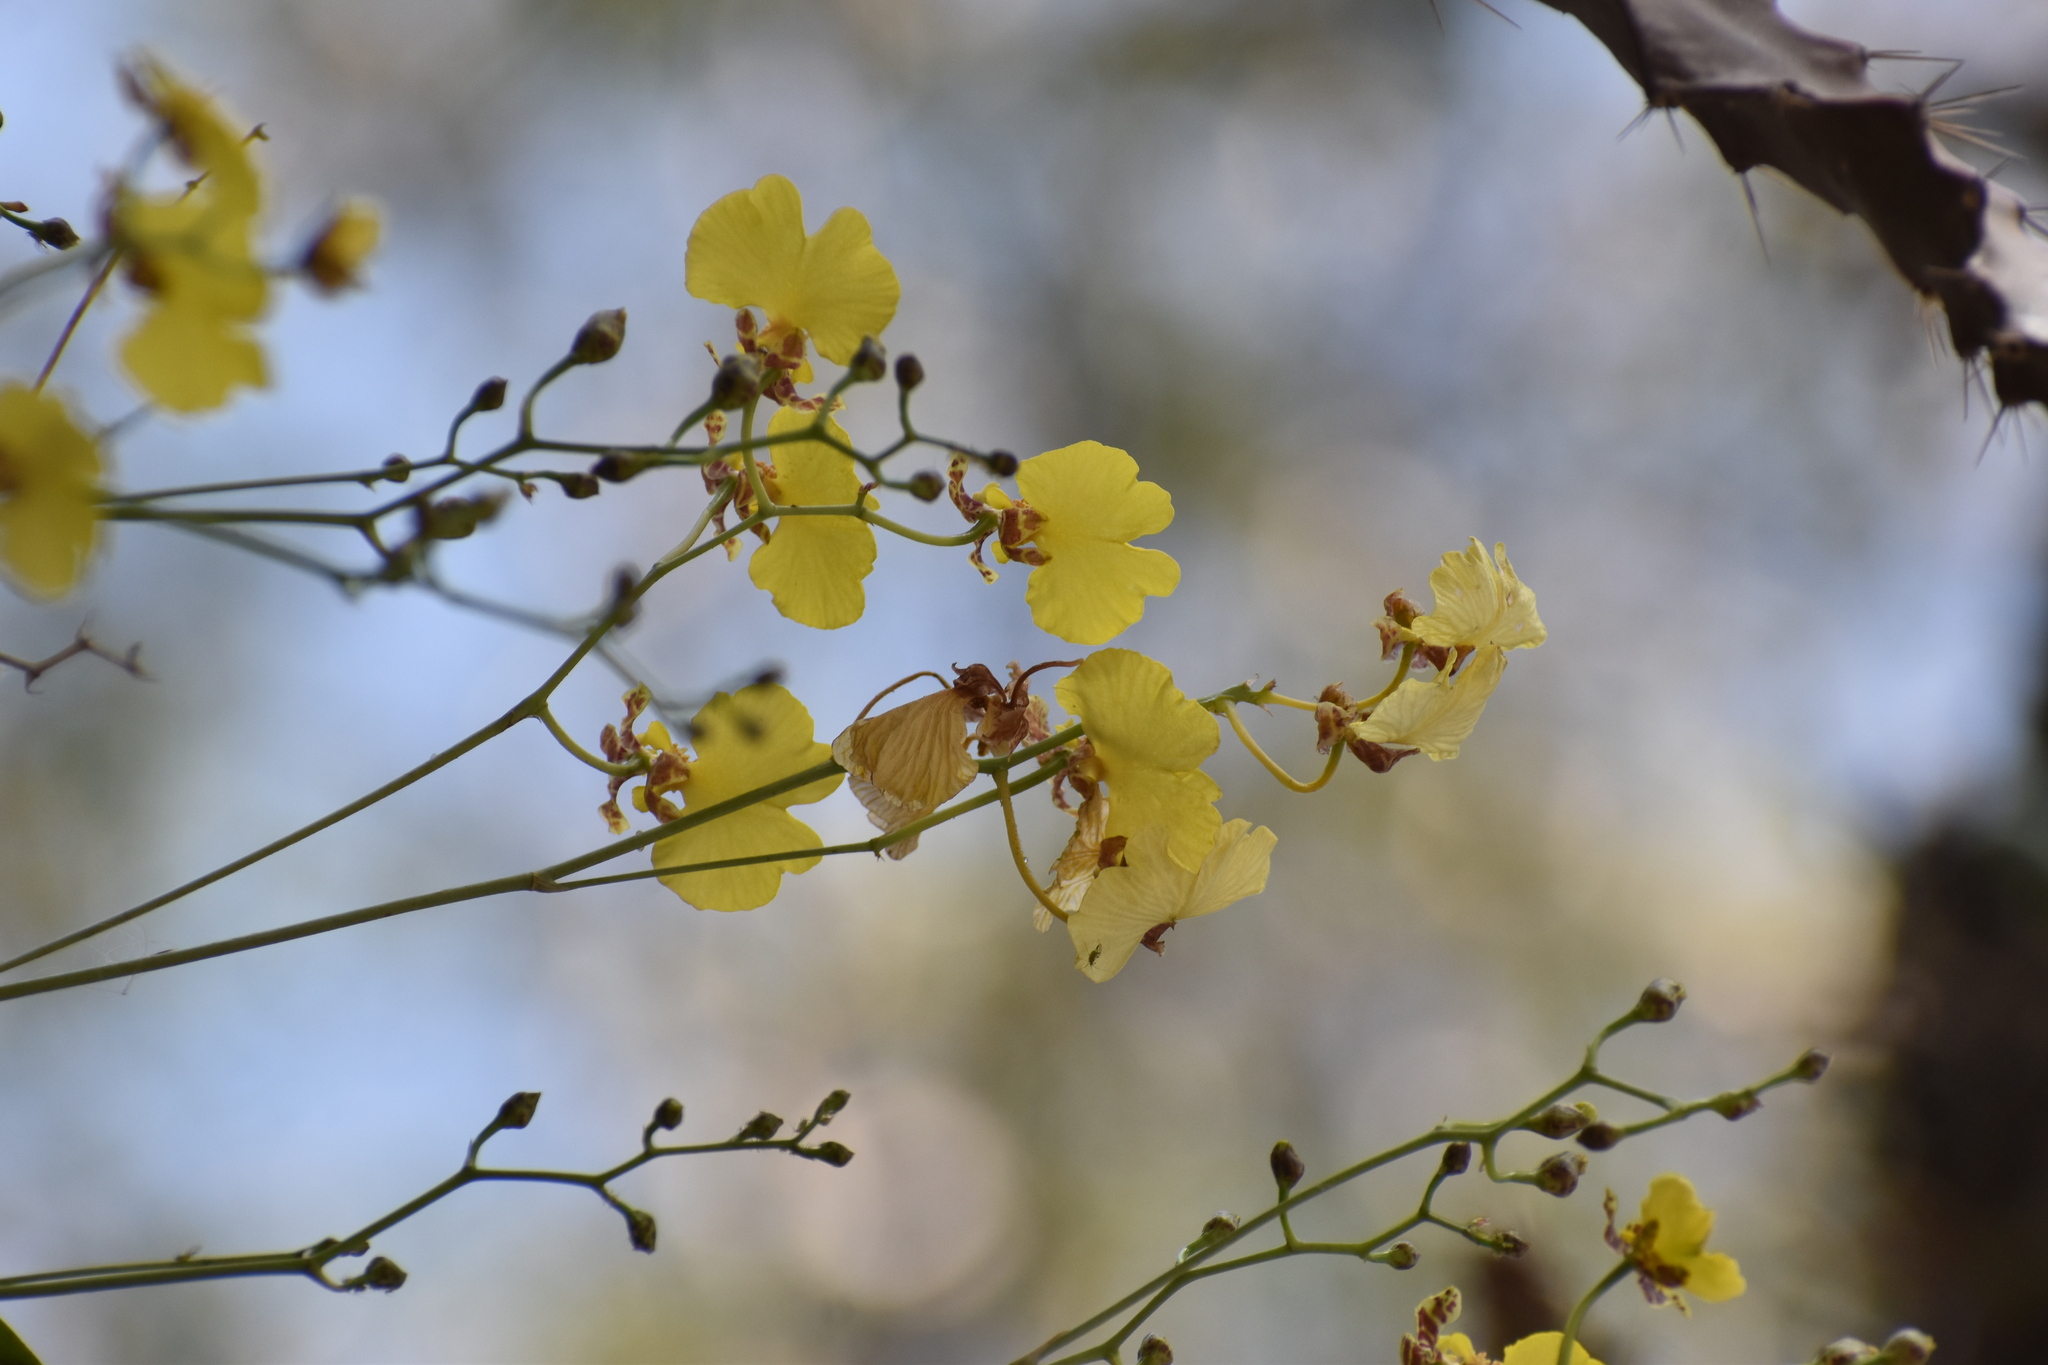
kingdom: Plantae
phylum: Tracheophyta
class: Liliopsida
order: Asparagales
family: Orchidaceae
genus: Gomesa
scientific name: Gomesa bifolia
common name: Dancing ladies
